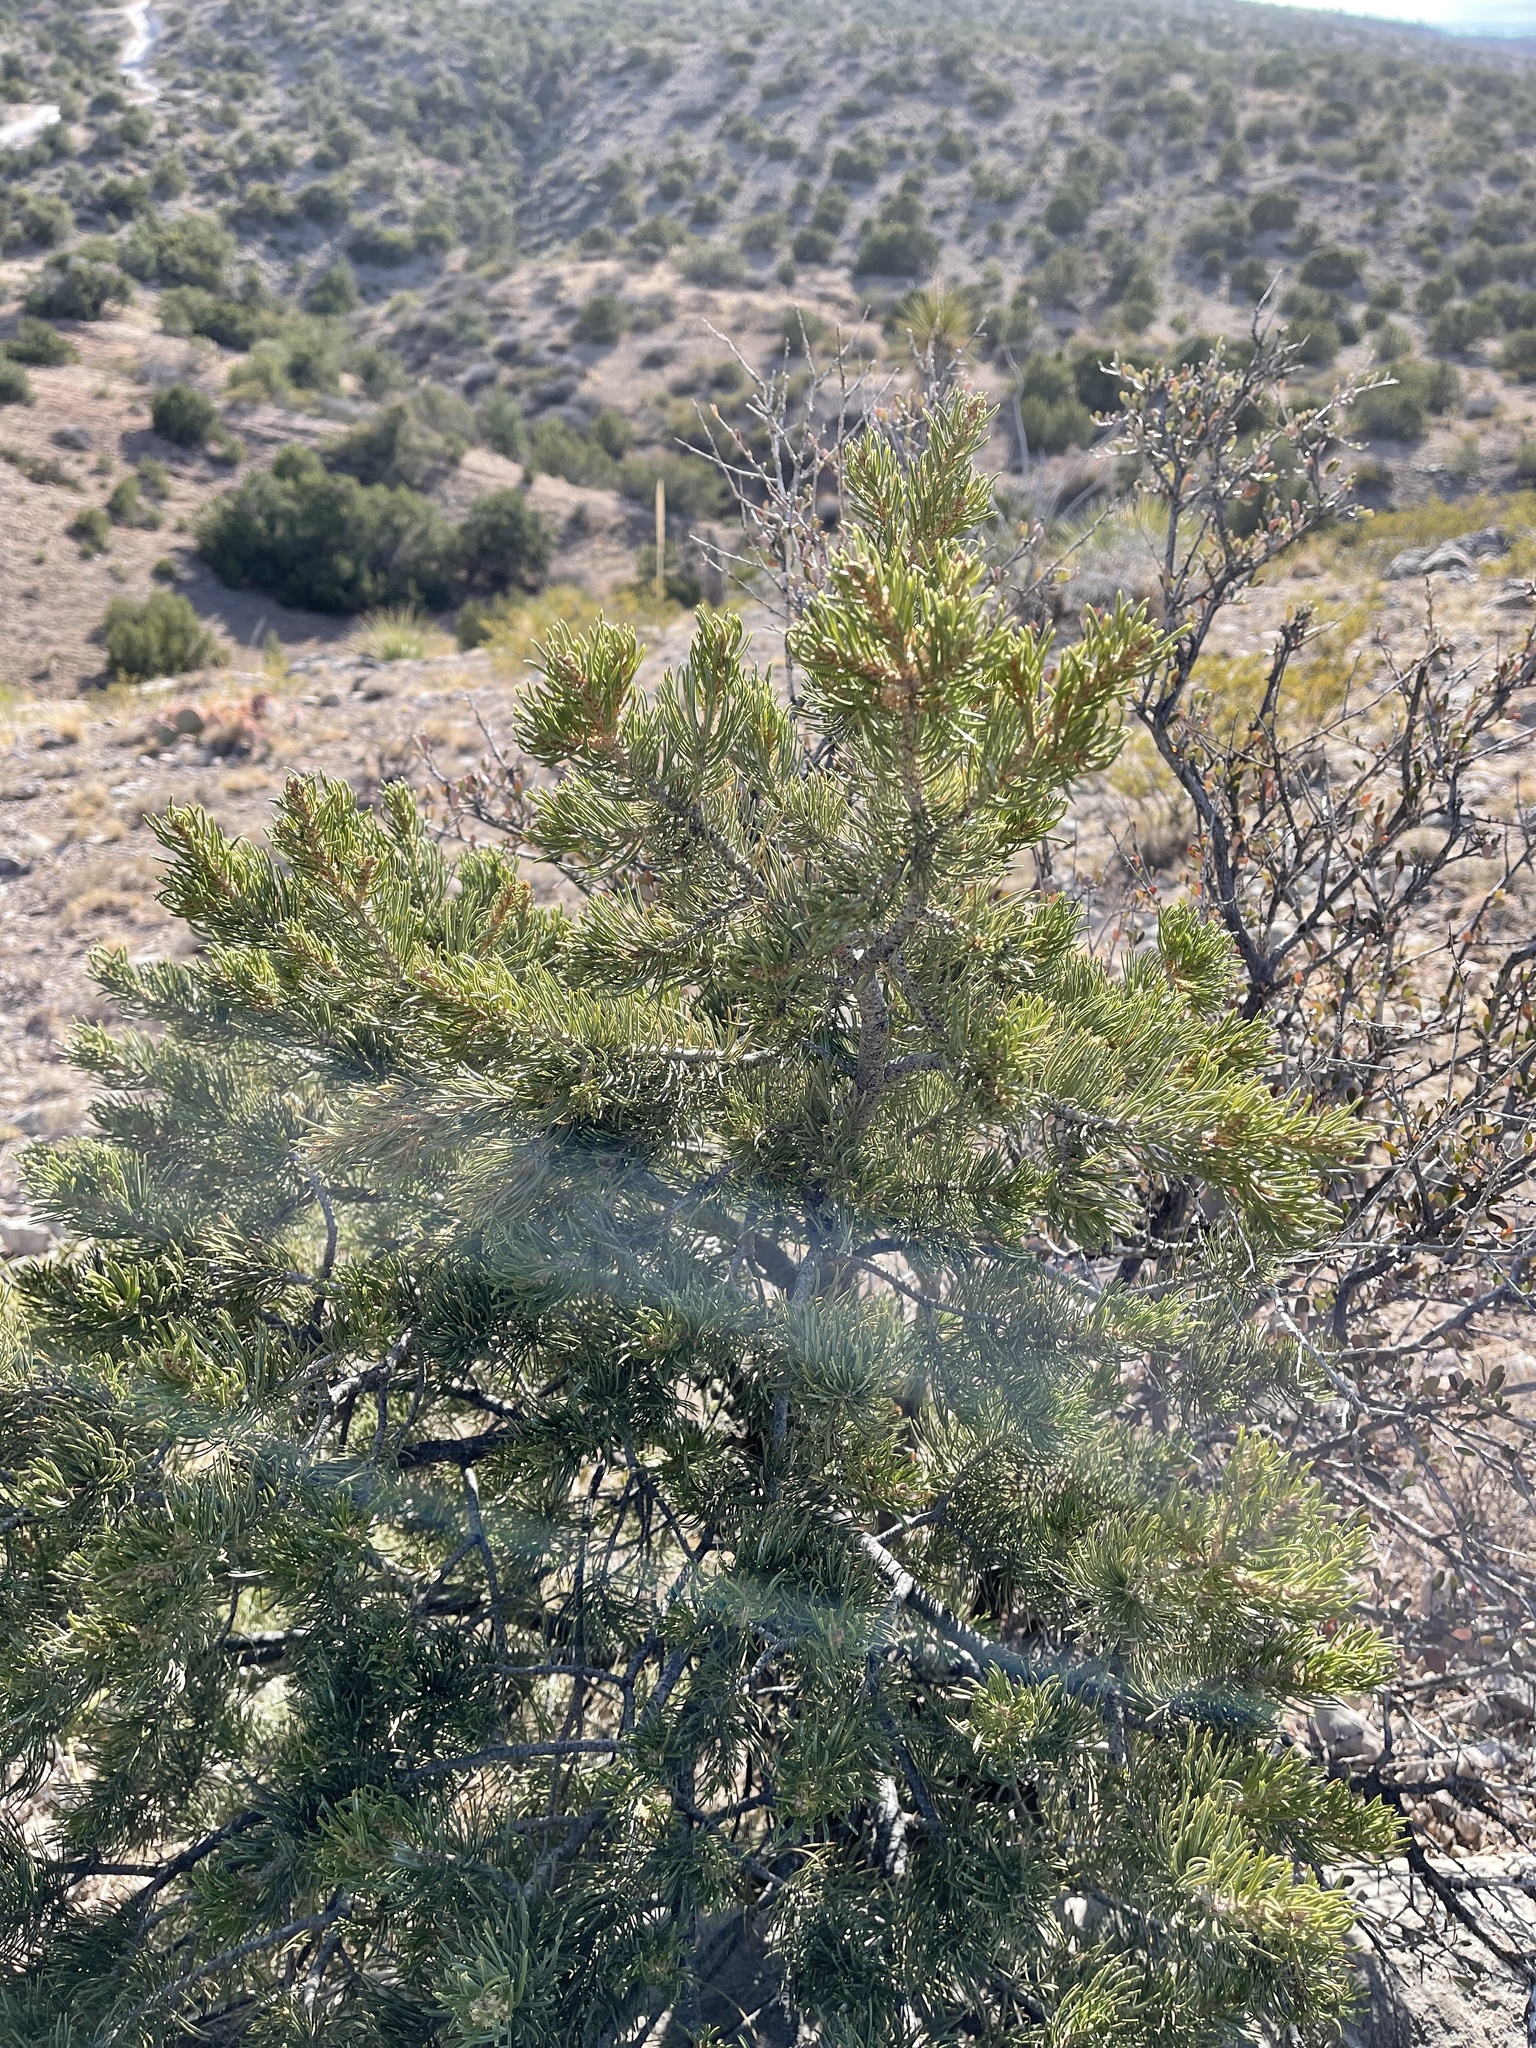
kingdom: Plantae
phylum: Tracheophyta
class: Pinopsida
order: Pinales
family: Pinaceae
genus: Pinus
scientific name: Pinus edulis
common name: Colorado pinyon
